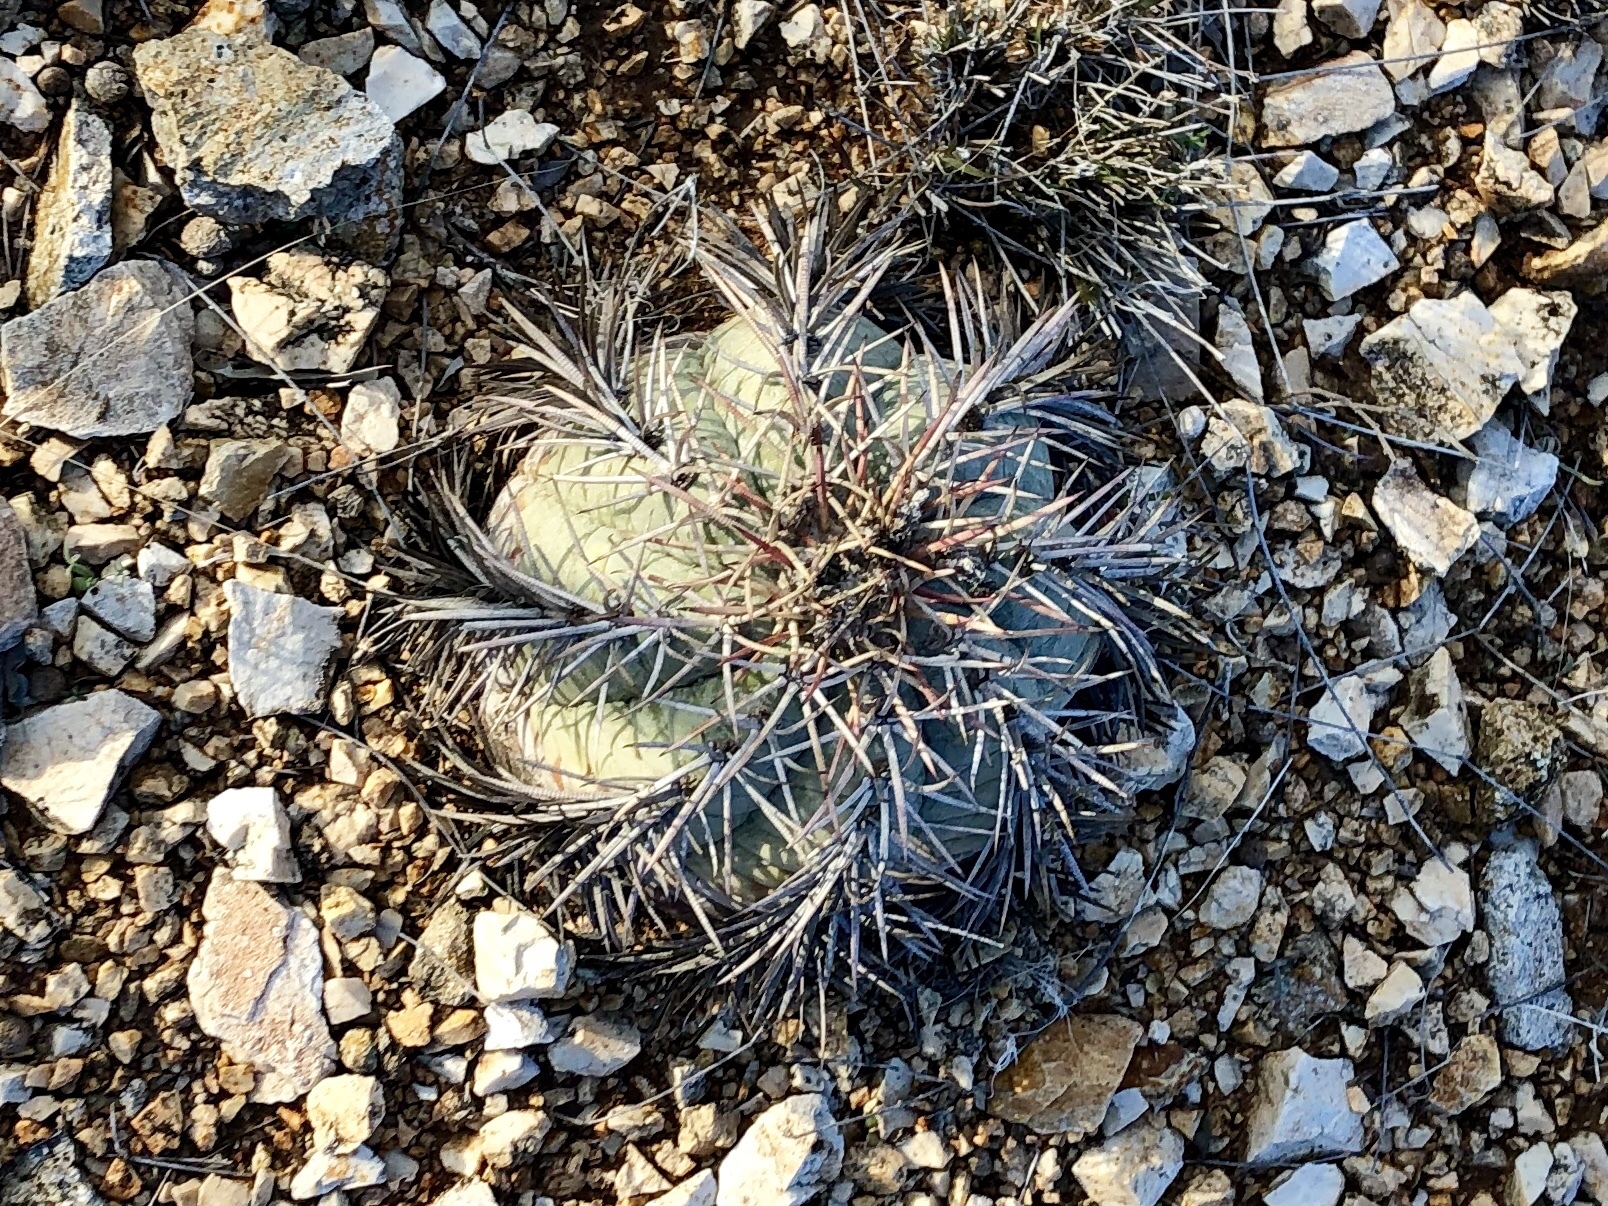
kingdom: Plantae
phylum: Tracheophyta
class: Magnoliopsida
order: Caryophyllales
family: Cactaceae
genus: Echinocactus
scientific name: Echinocactus horizonthalonius
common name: Devilshead
